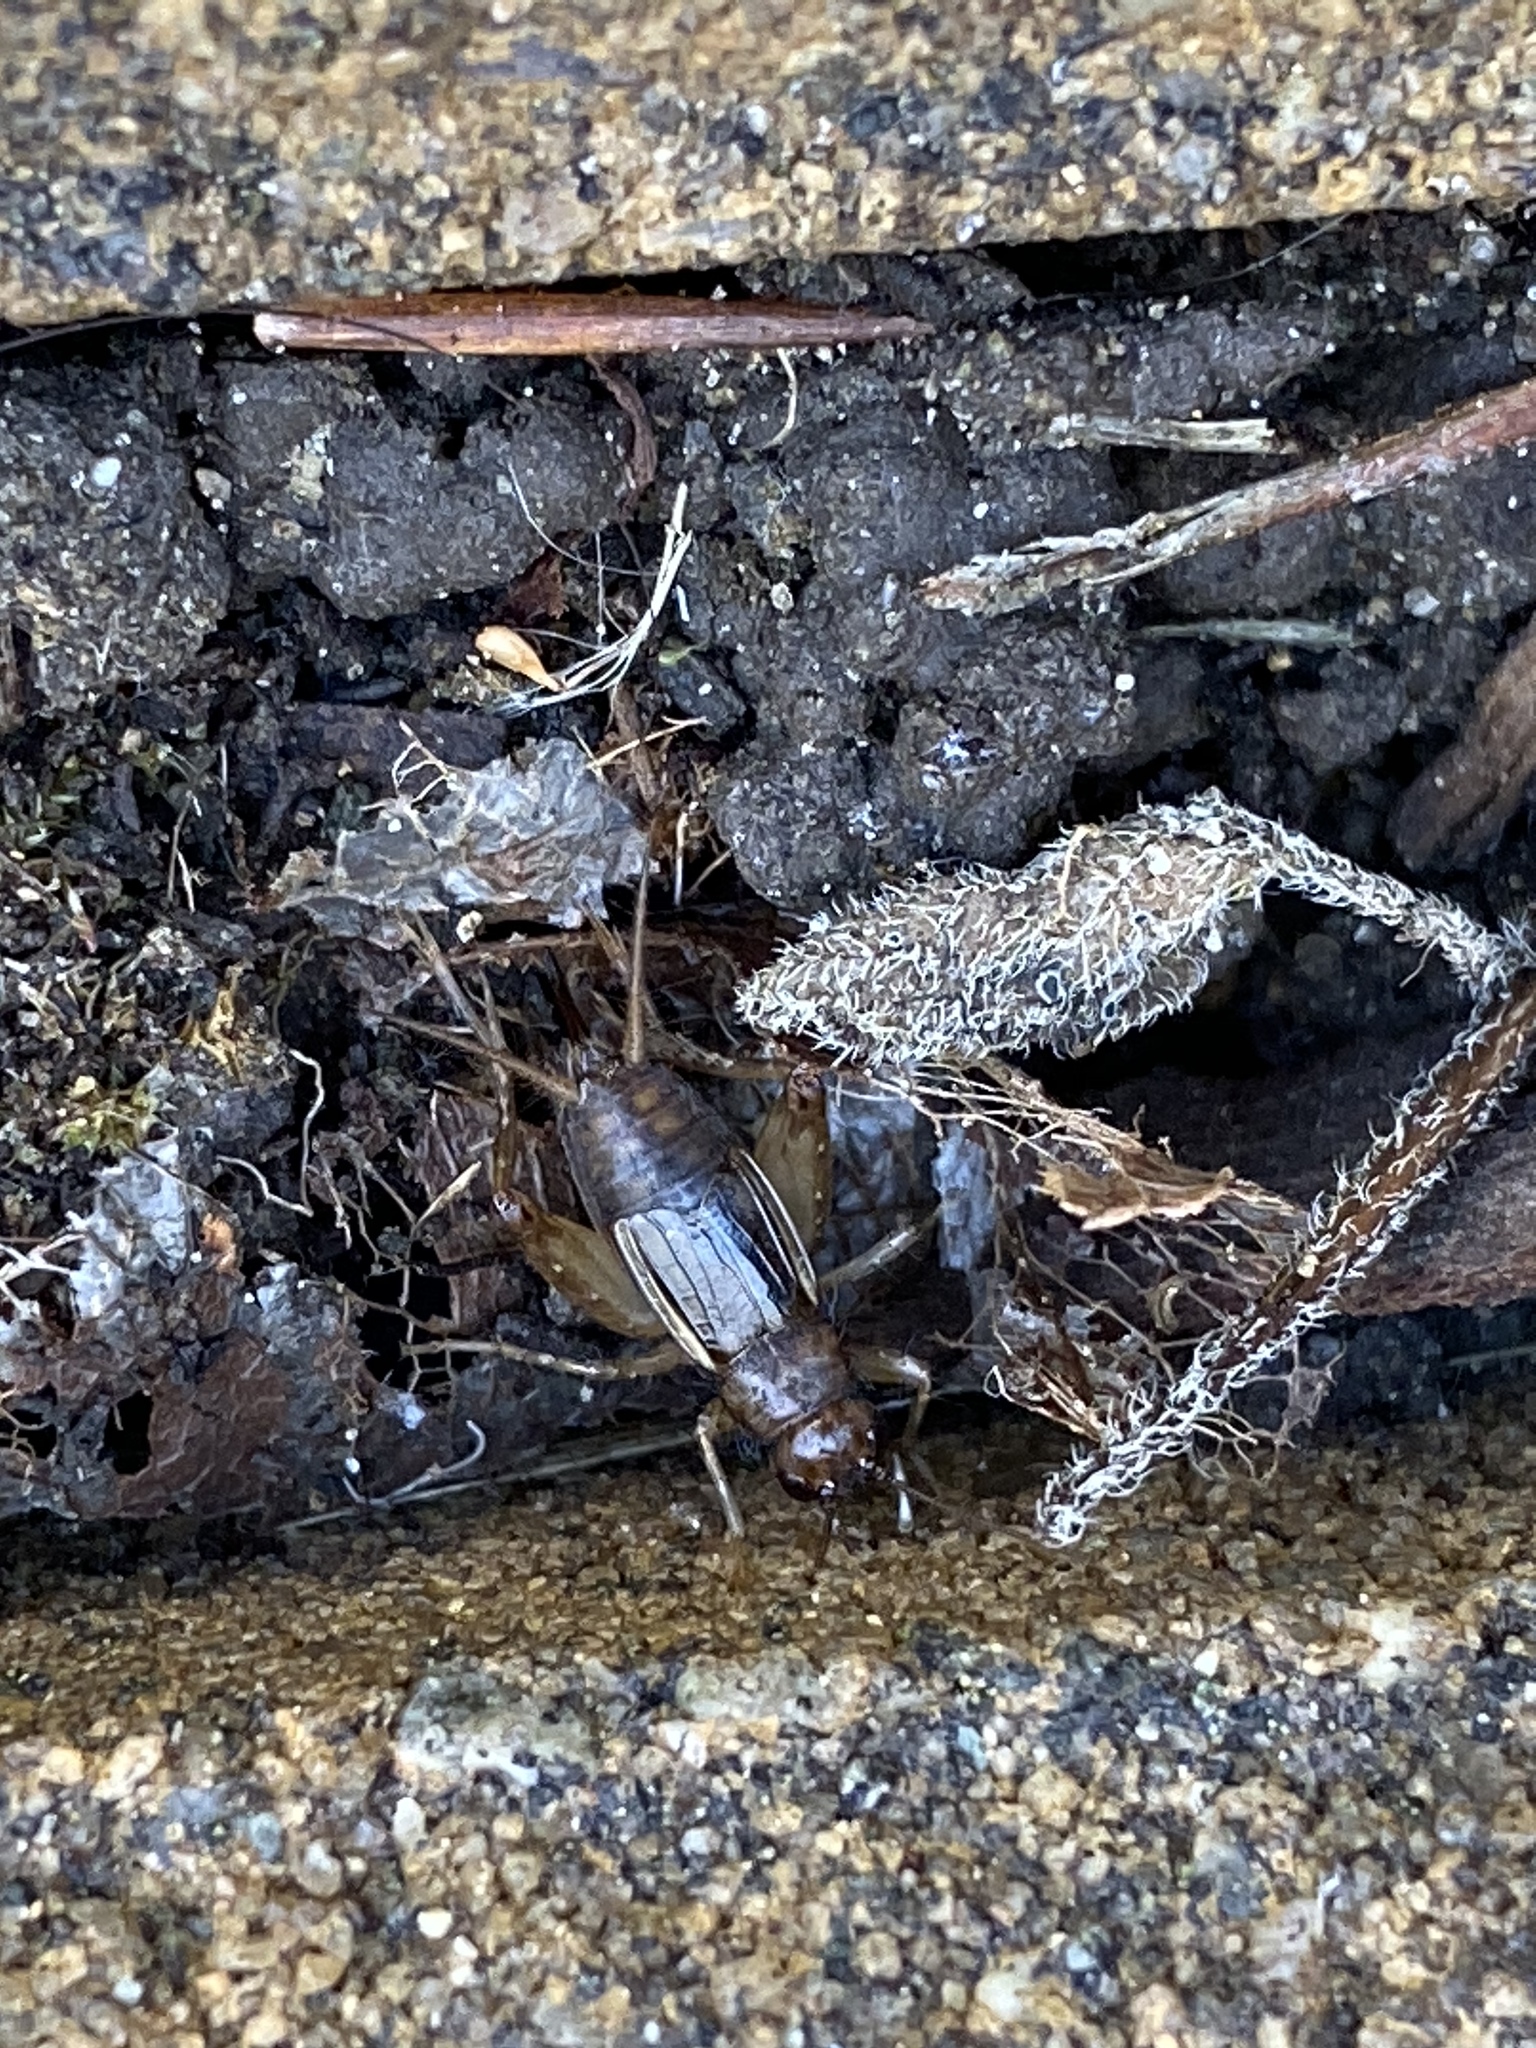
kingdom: Animalia
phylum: Arthropoda
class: Insecta
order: Orthoptera
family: Trigonidiidae
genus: Eunemobius
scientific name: Eunemobius carolinus
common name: Carolina ground cricket
